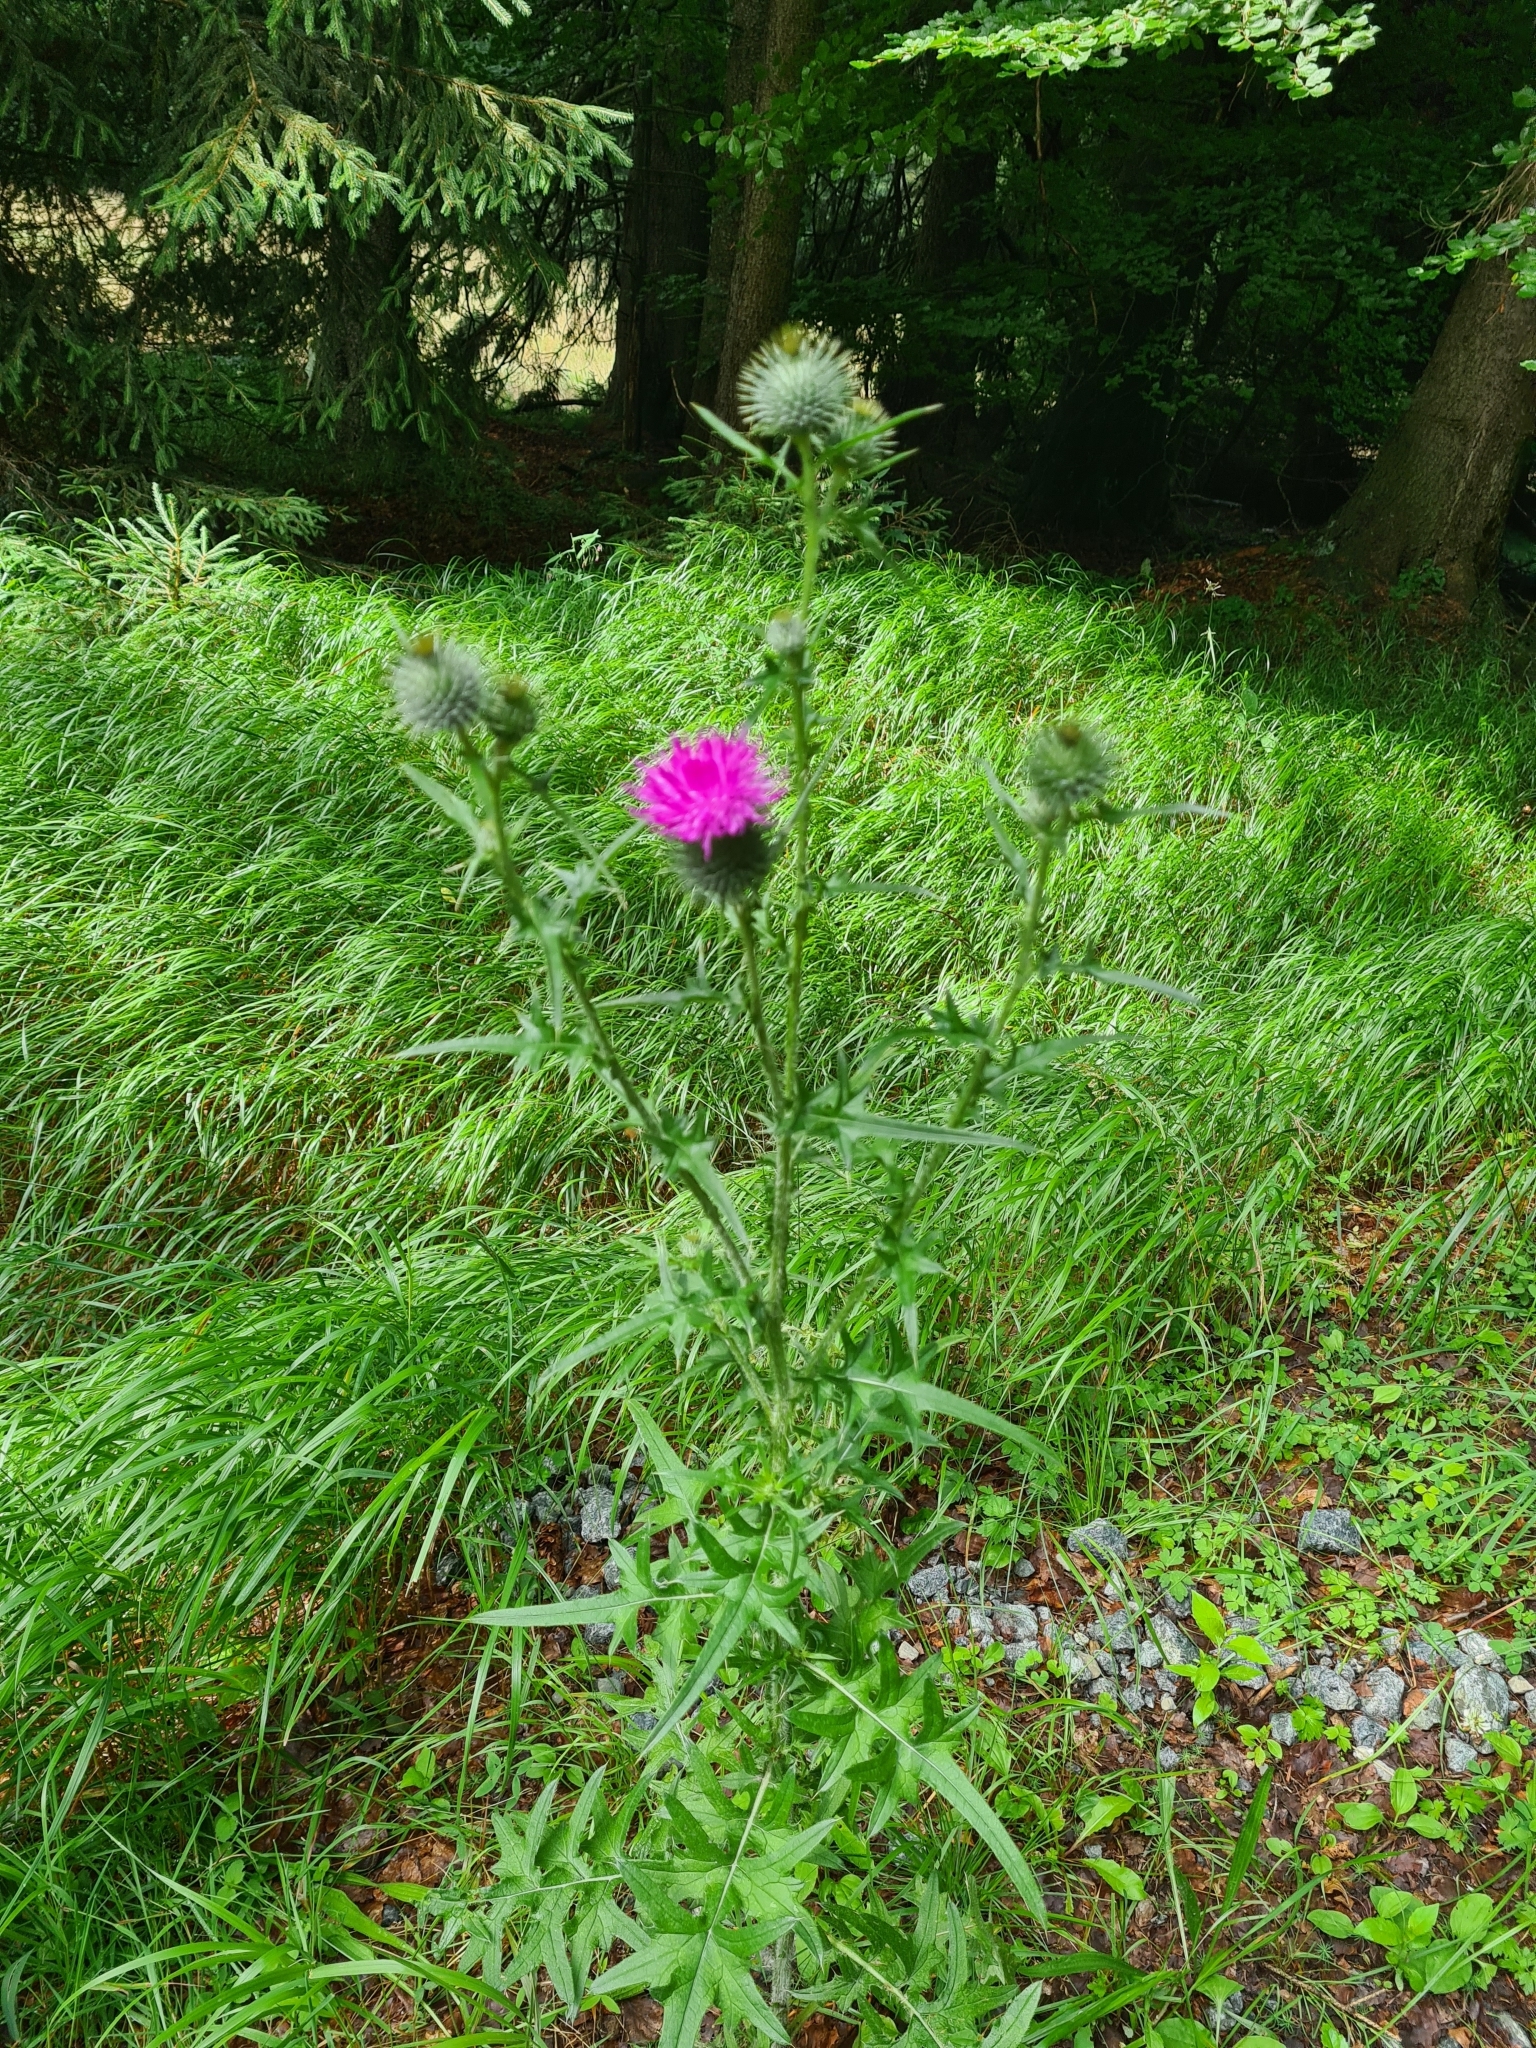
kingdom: Plantae
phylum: Tracheophyta
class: Magnoliopsida
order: Asterales
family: Asteraceae
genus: Cirsium
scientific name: Cirsium vulgare
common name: Bull thistle
